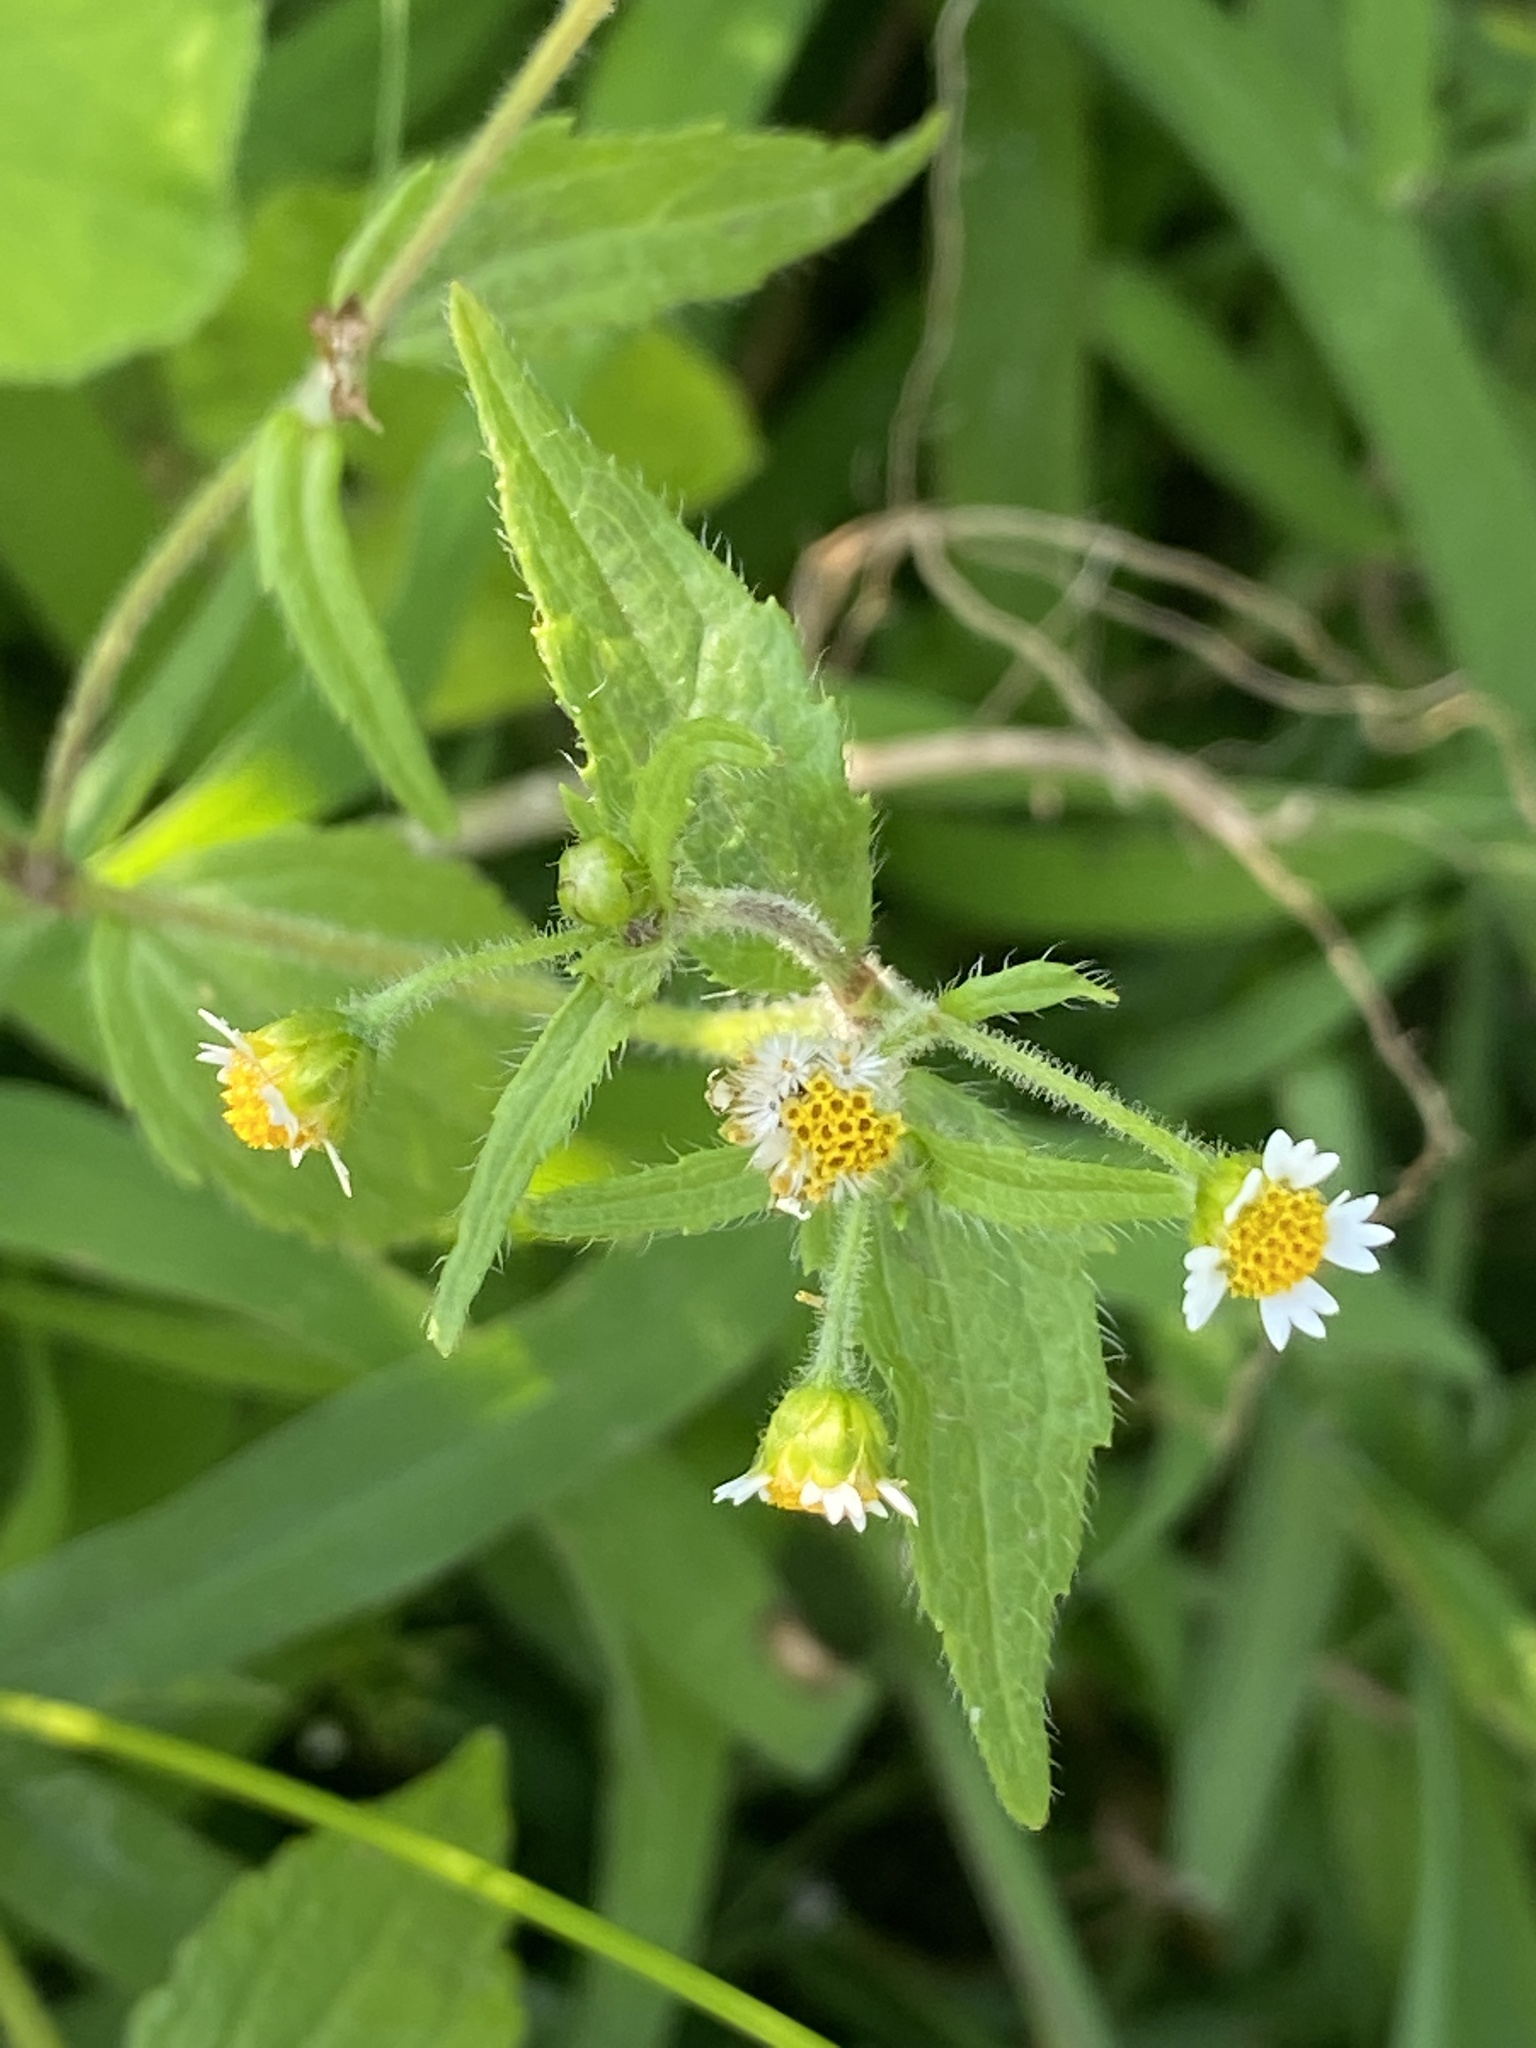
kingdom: Plantae
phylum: Tracheophyta
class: Magnoliopsida
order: Asterales
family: Asteraceae
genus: Galinsoga
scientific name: Galinsoga quadriradiata
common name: Shaggy soldier
